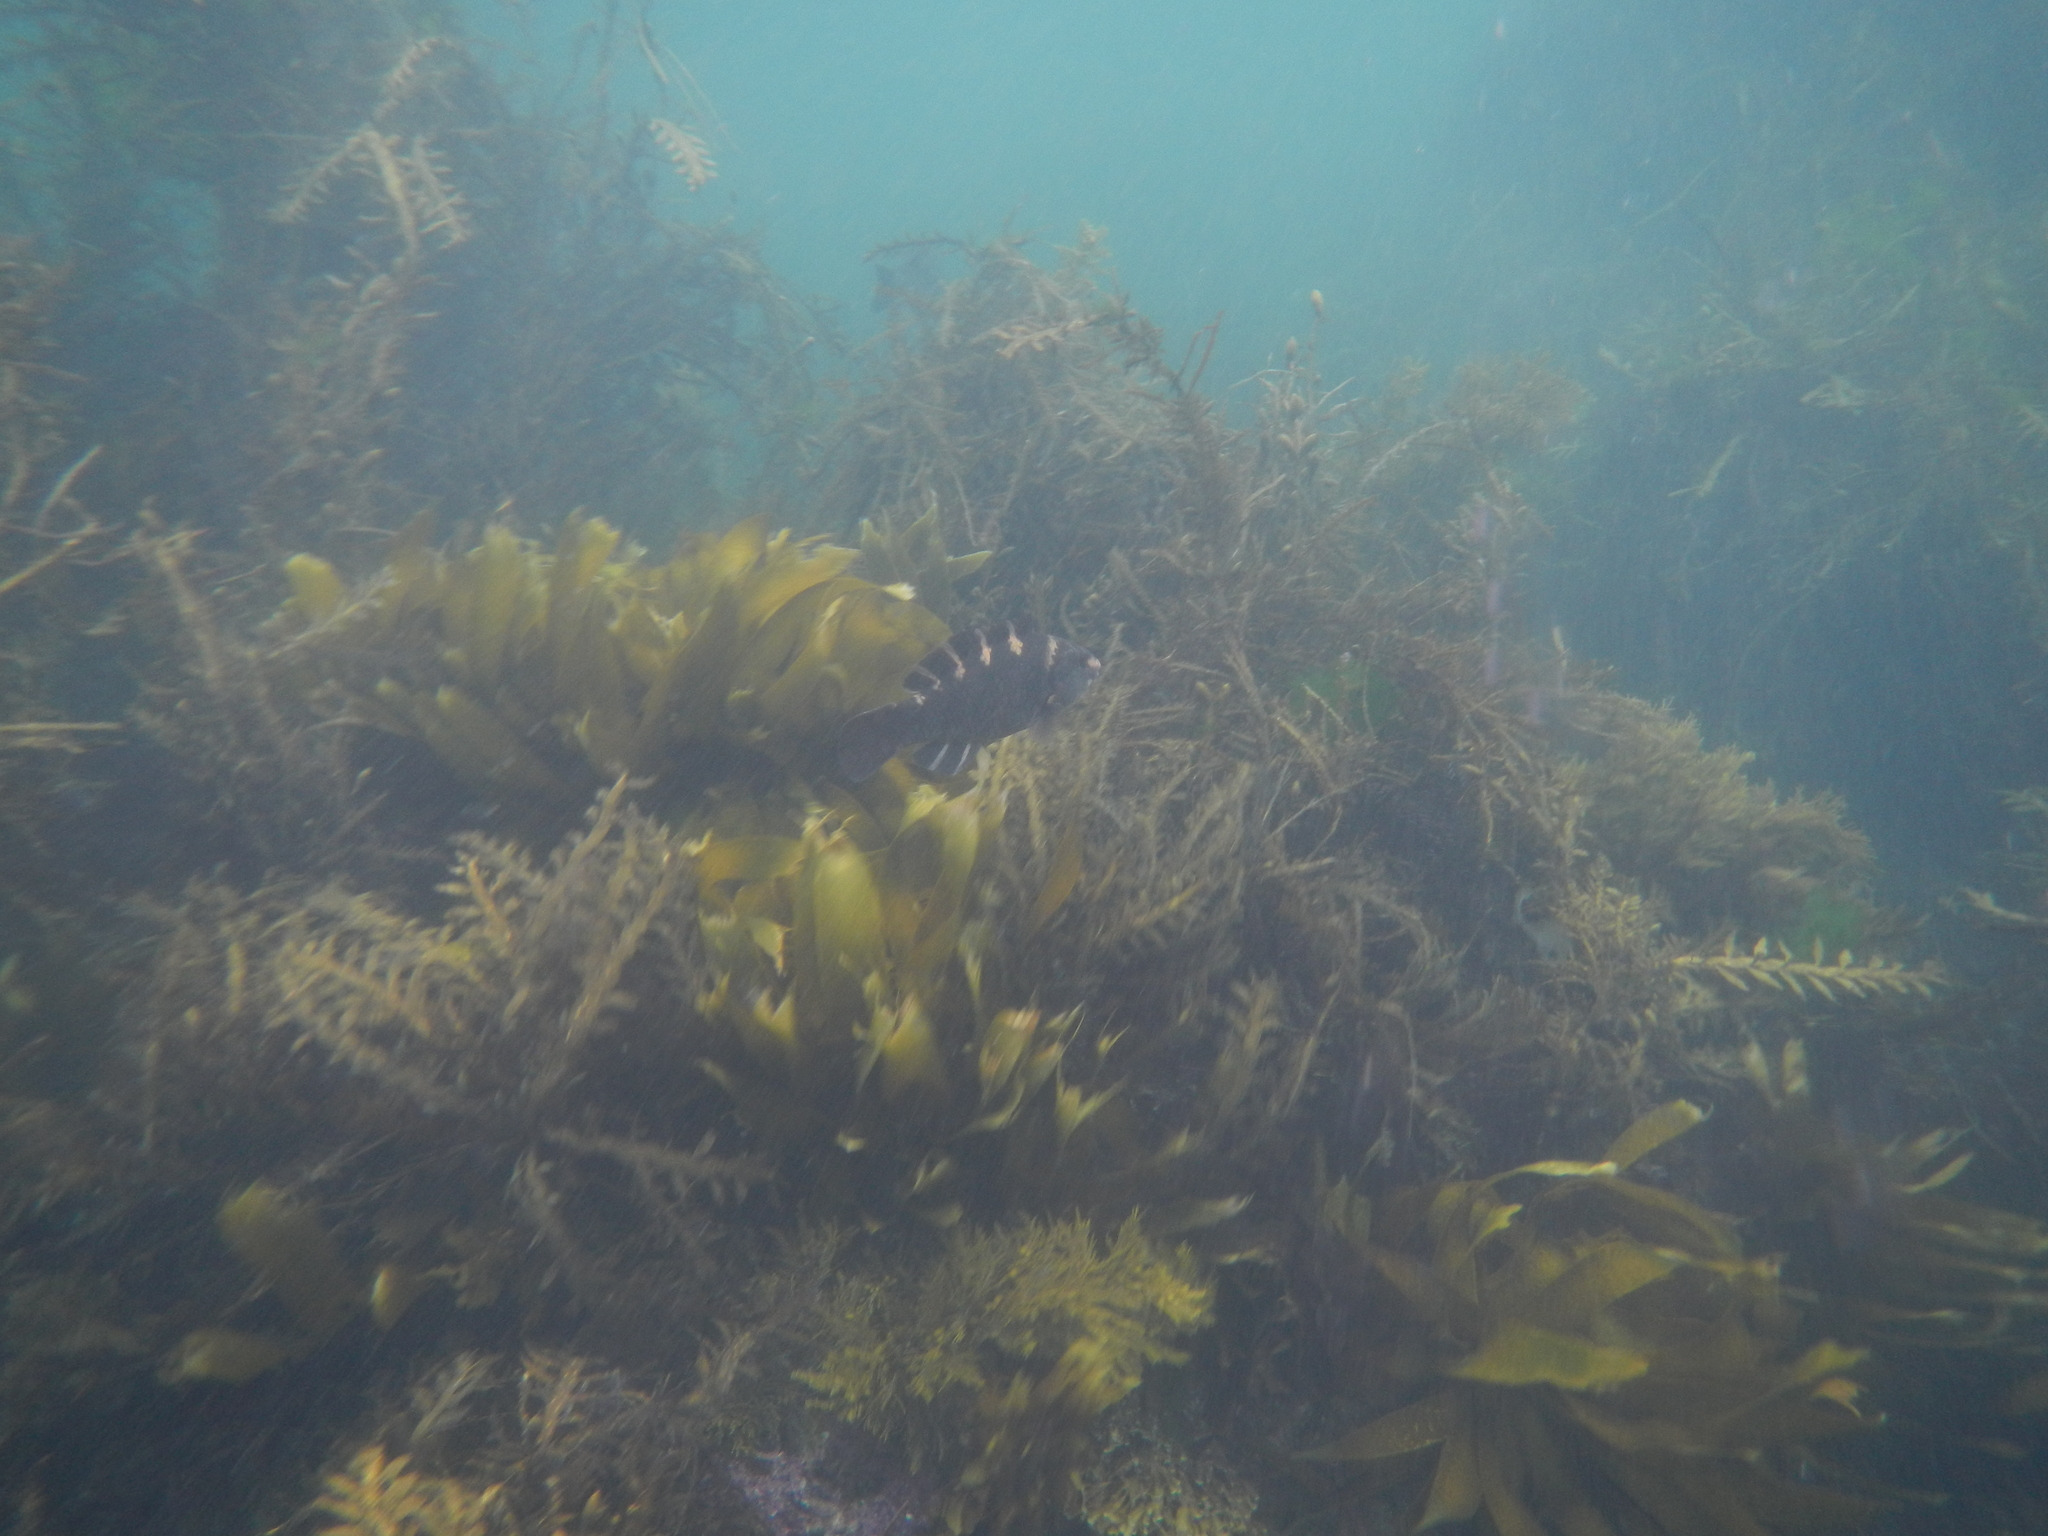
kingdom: Animalia
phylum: Chordata
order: Perciformes
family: Labridae
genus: Notolabrus
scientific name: Notolabrus fucicola
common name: Banded parrotfish
